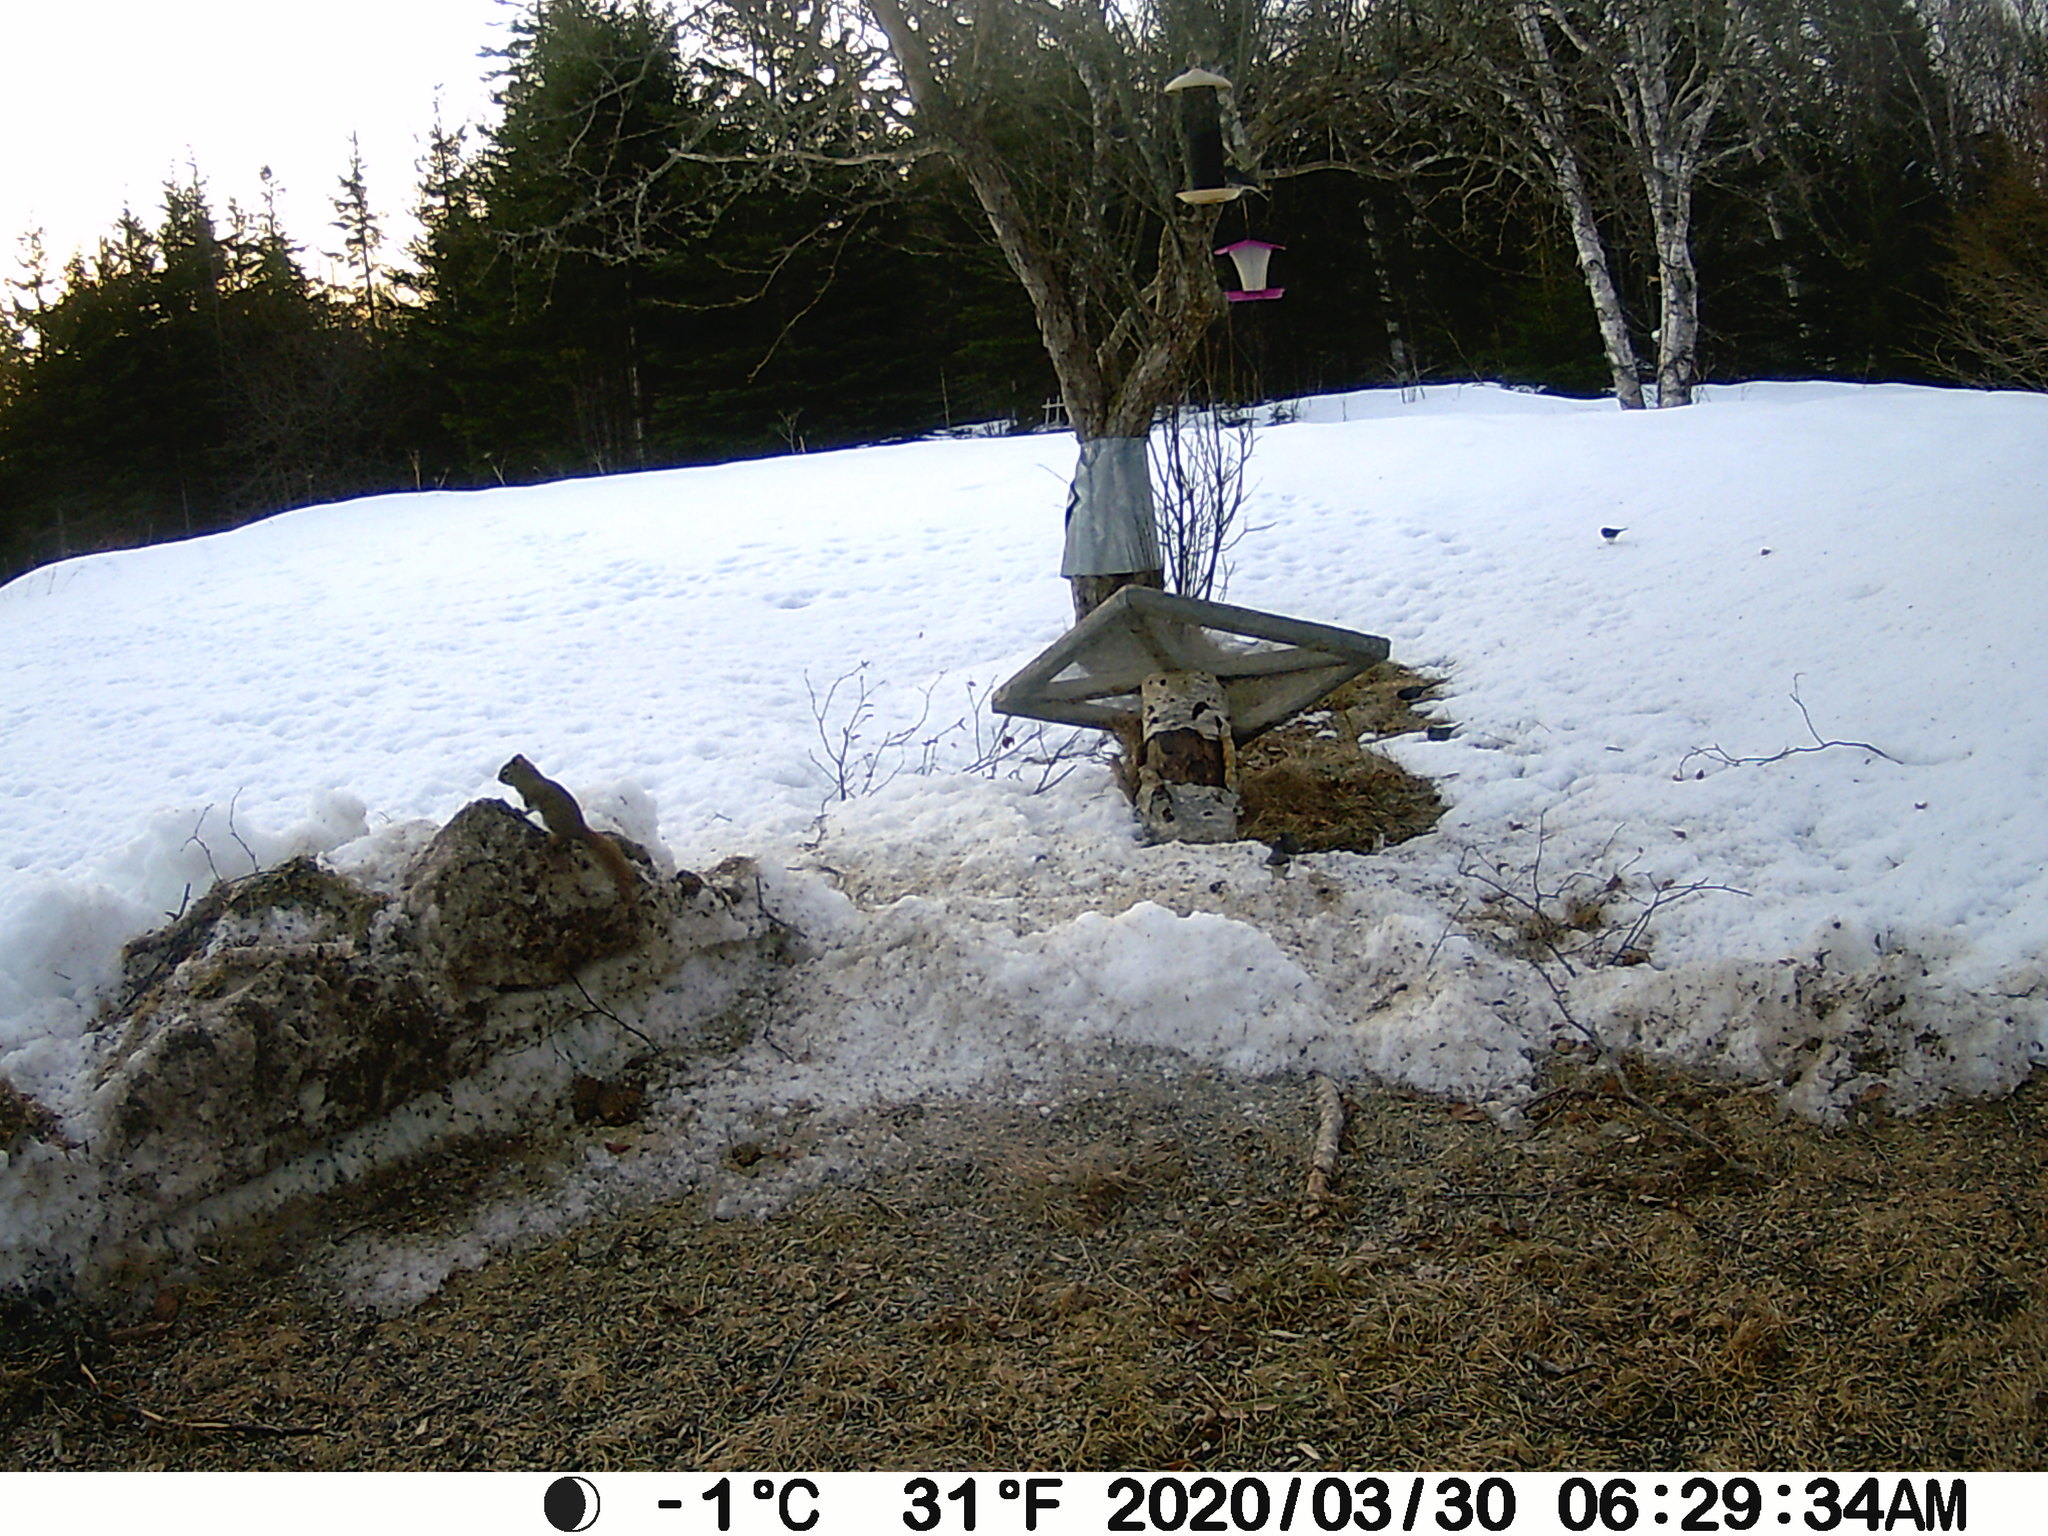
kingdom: Animalia
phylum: Chordata
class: Mammalia
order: Rodentia
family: Sciuridae
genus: Tamiasciurus
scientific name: Tamiasciurus hudsonicus
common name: Red squirrel
